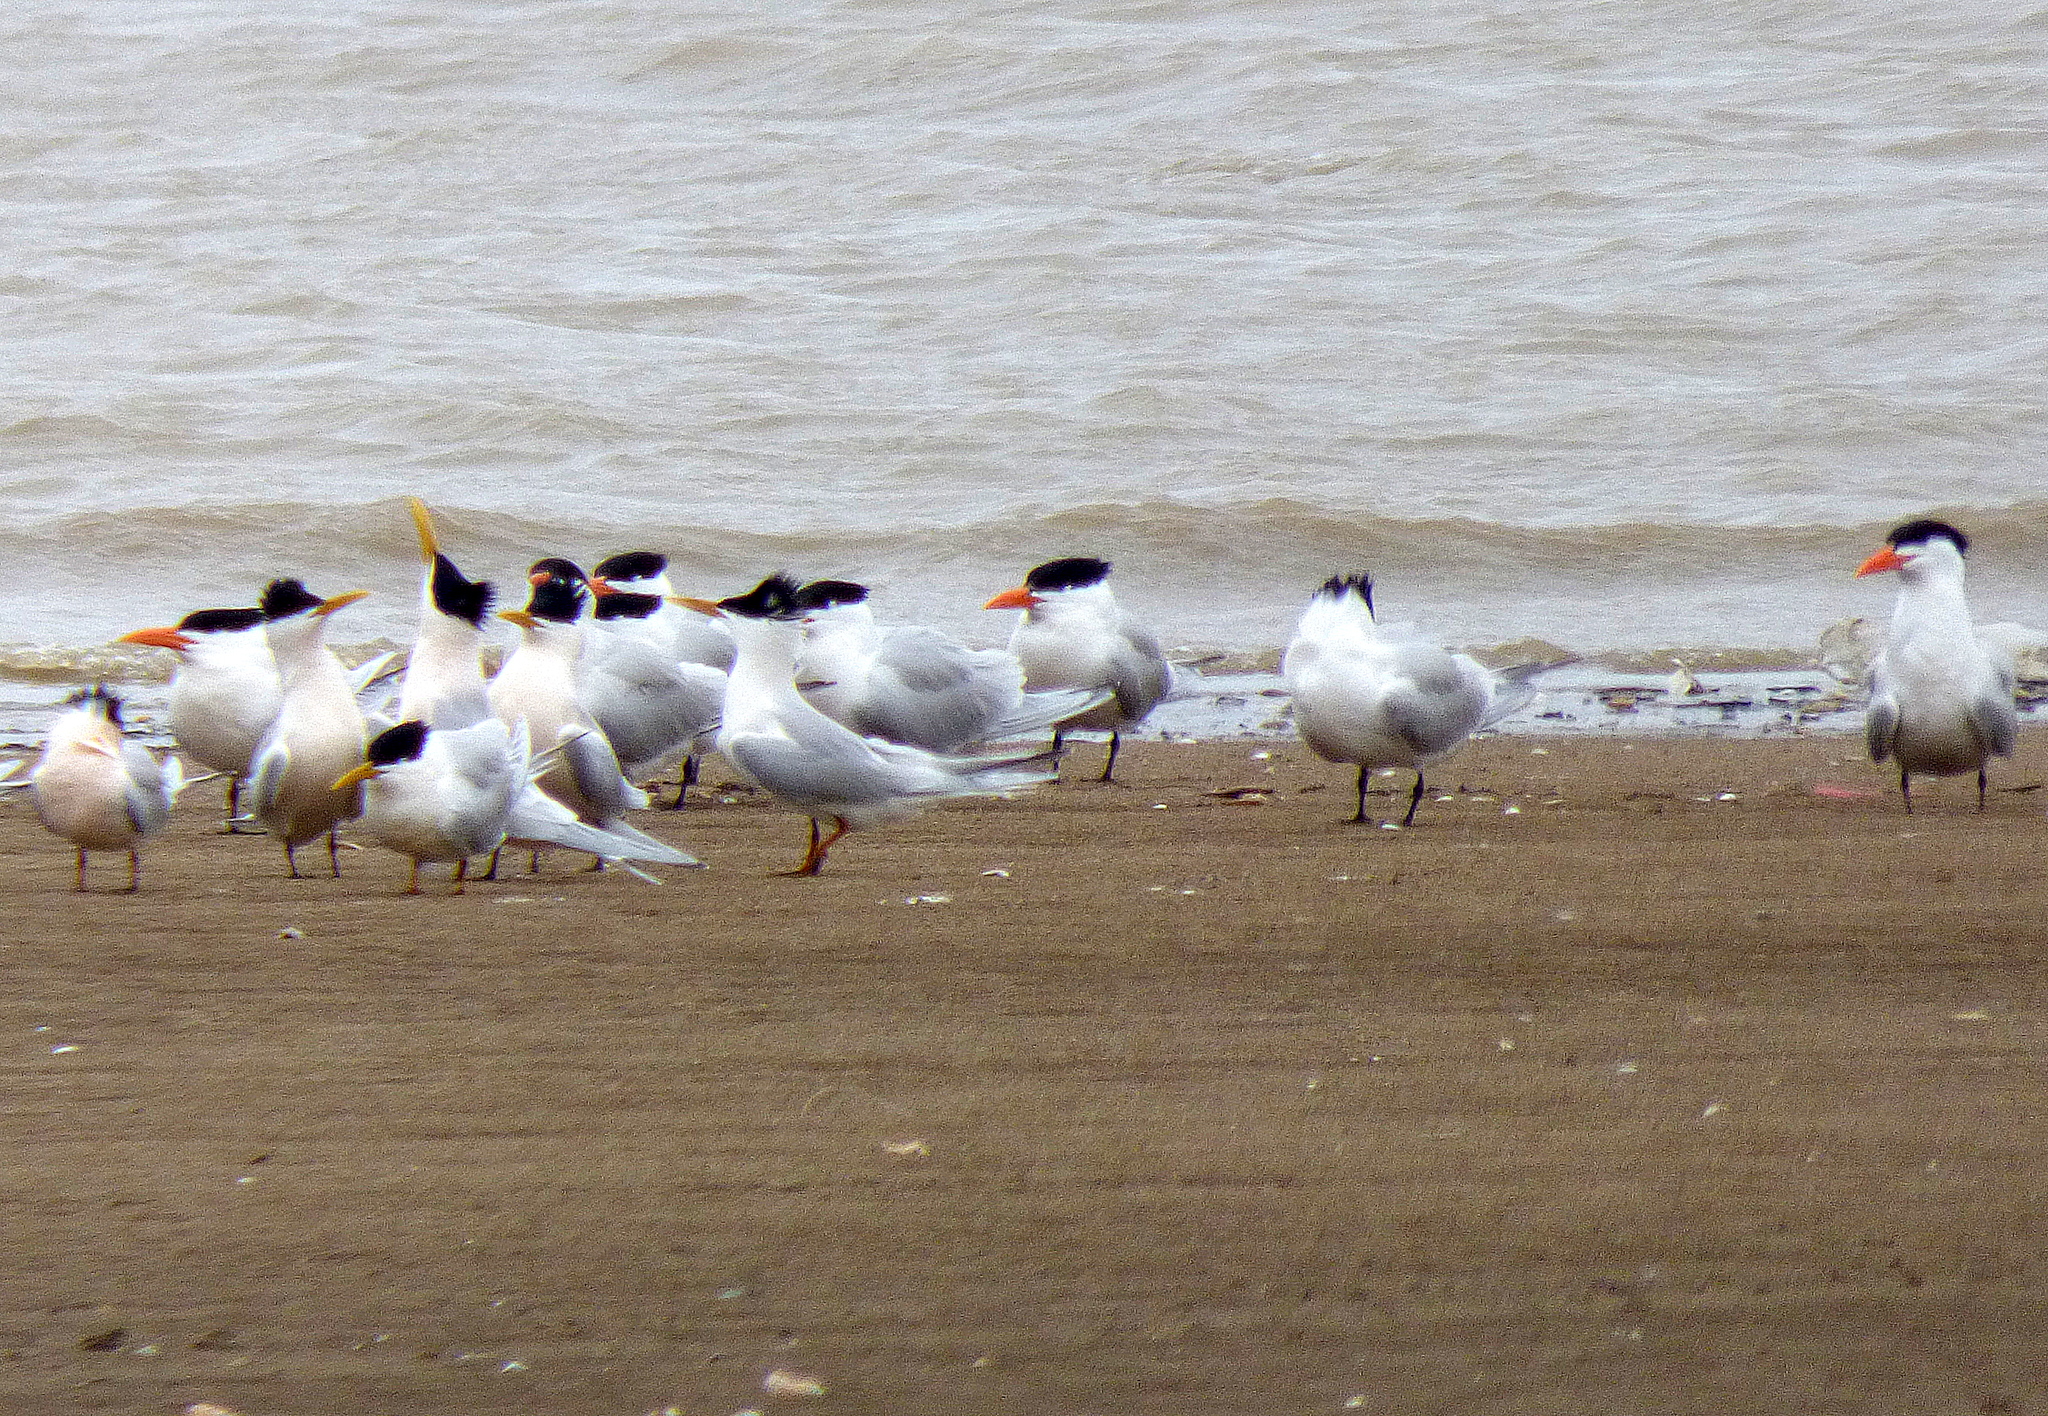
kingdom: Animalia
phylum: Chordata
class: Aves
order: Charadriiformes
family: Laridae
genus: Thalasseus
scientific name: Thalasseus sandvicensis
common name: Sandwich tern
